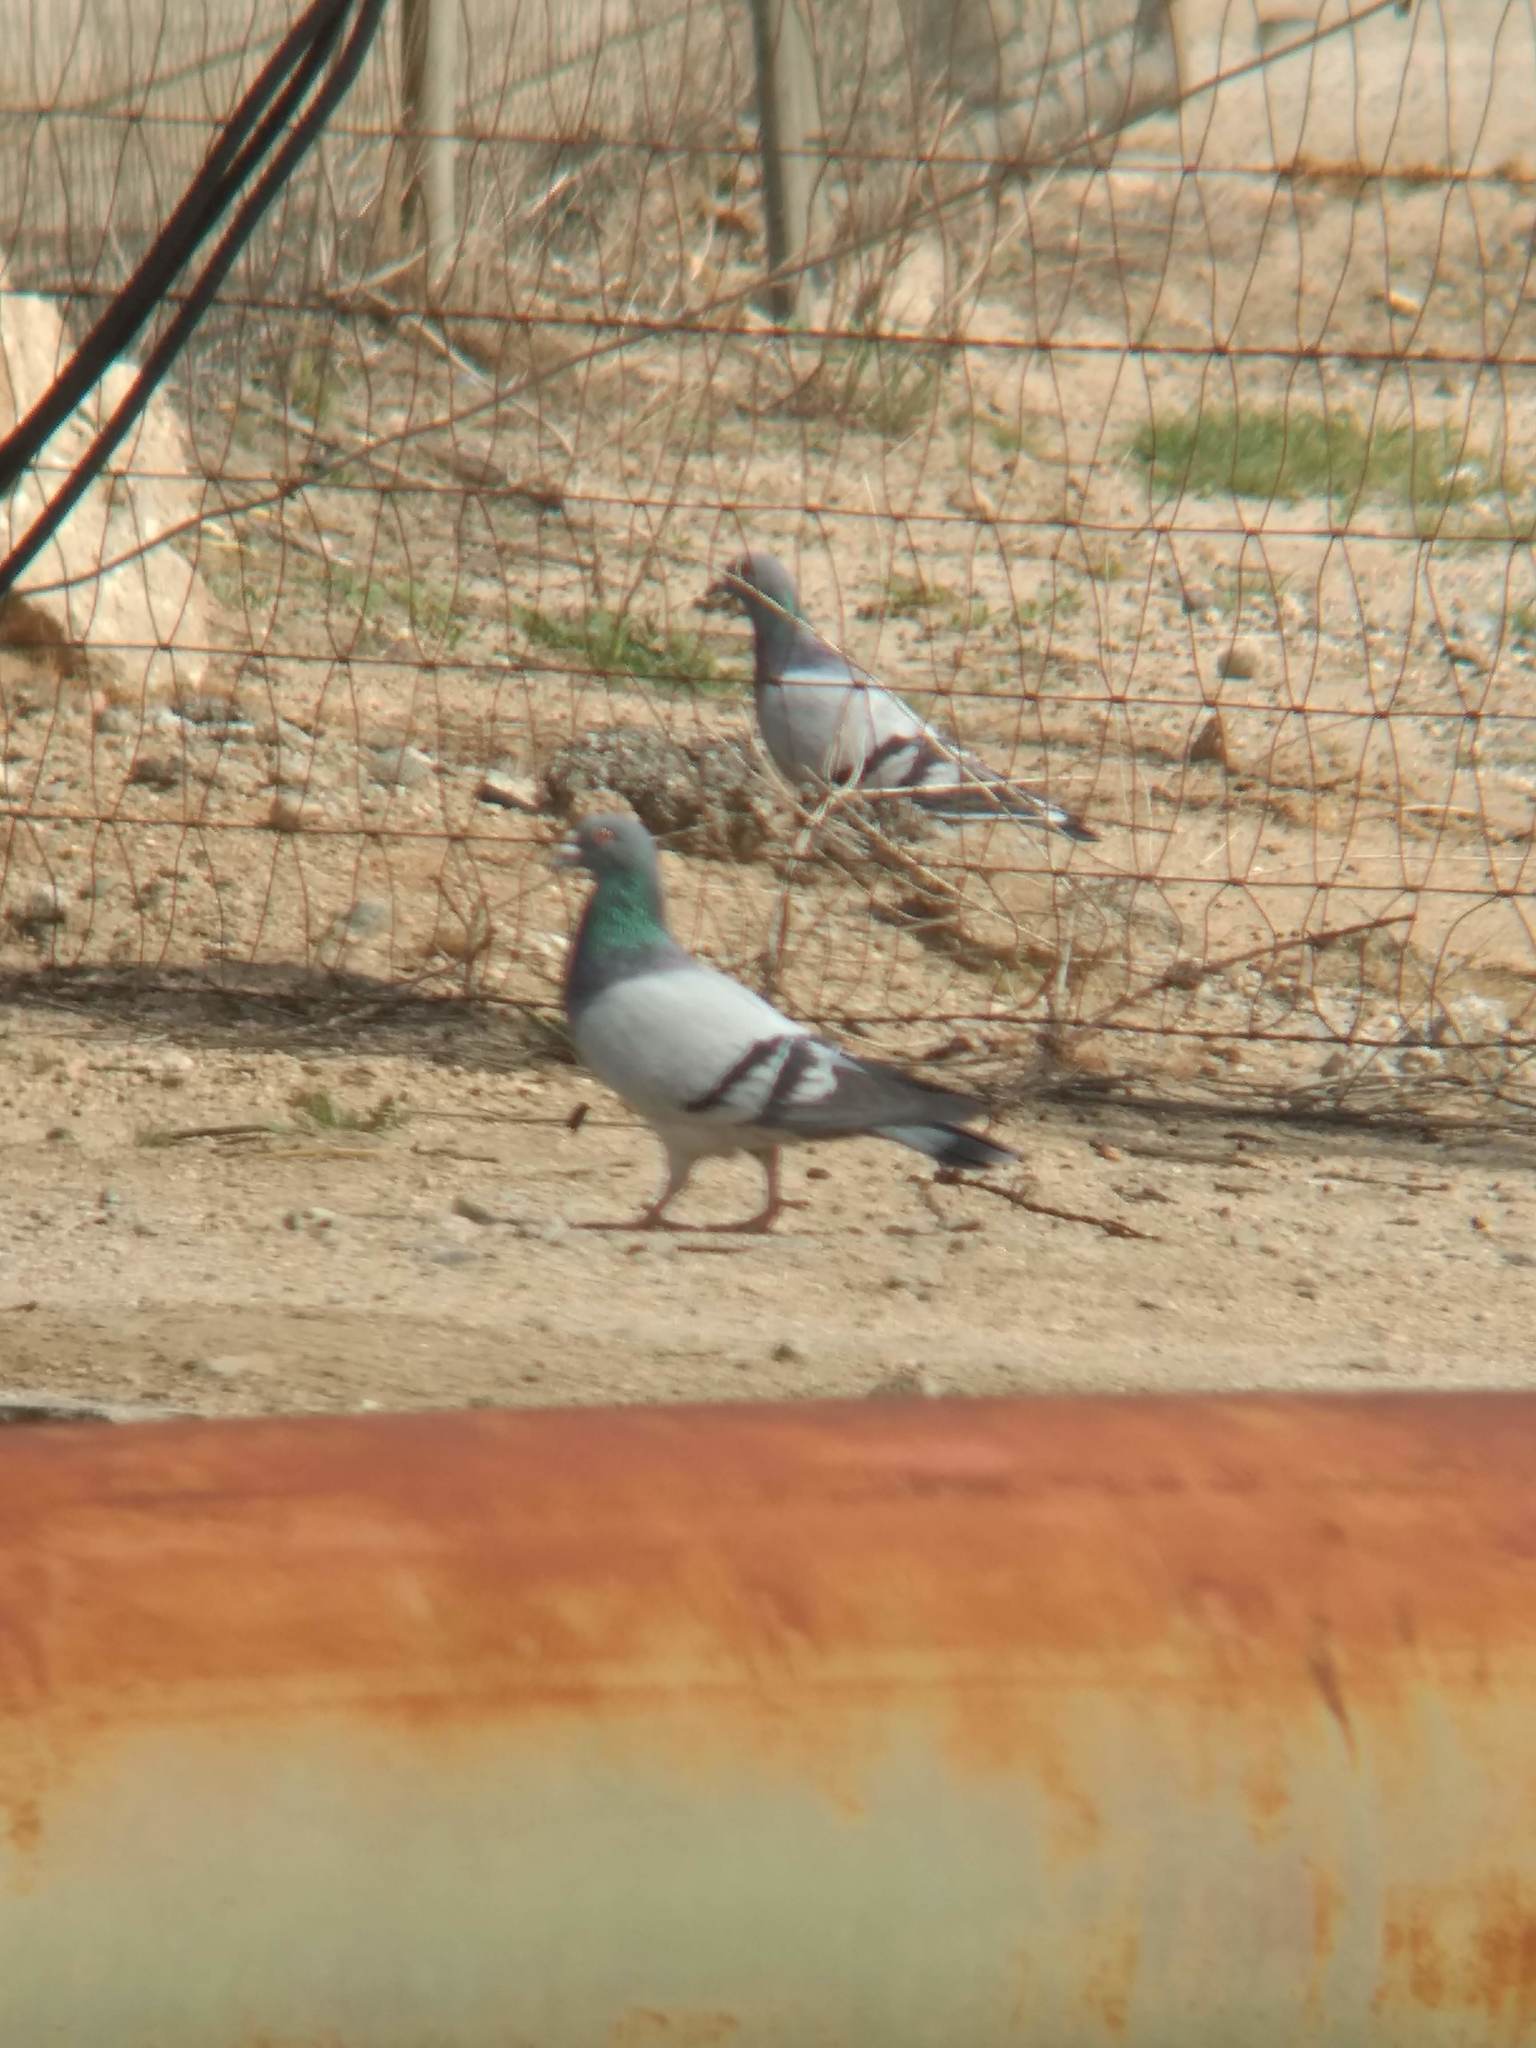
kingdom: Animalia
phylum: Chordata
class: Aves
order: Columbiformes
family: Columbidae
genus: Columba
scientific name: Columba livia
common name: Rock pigeon
